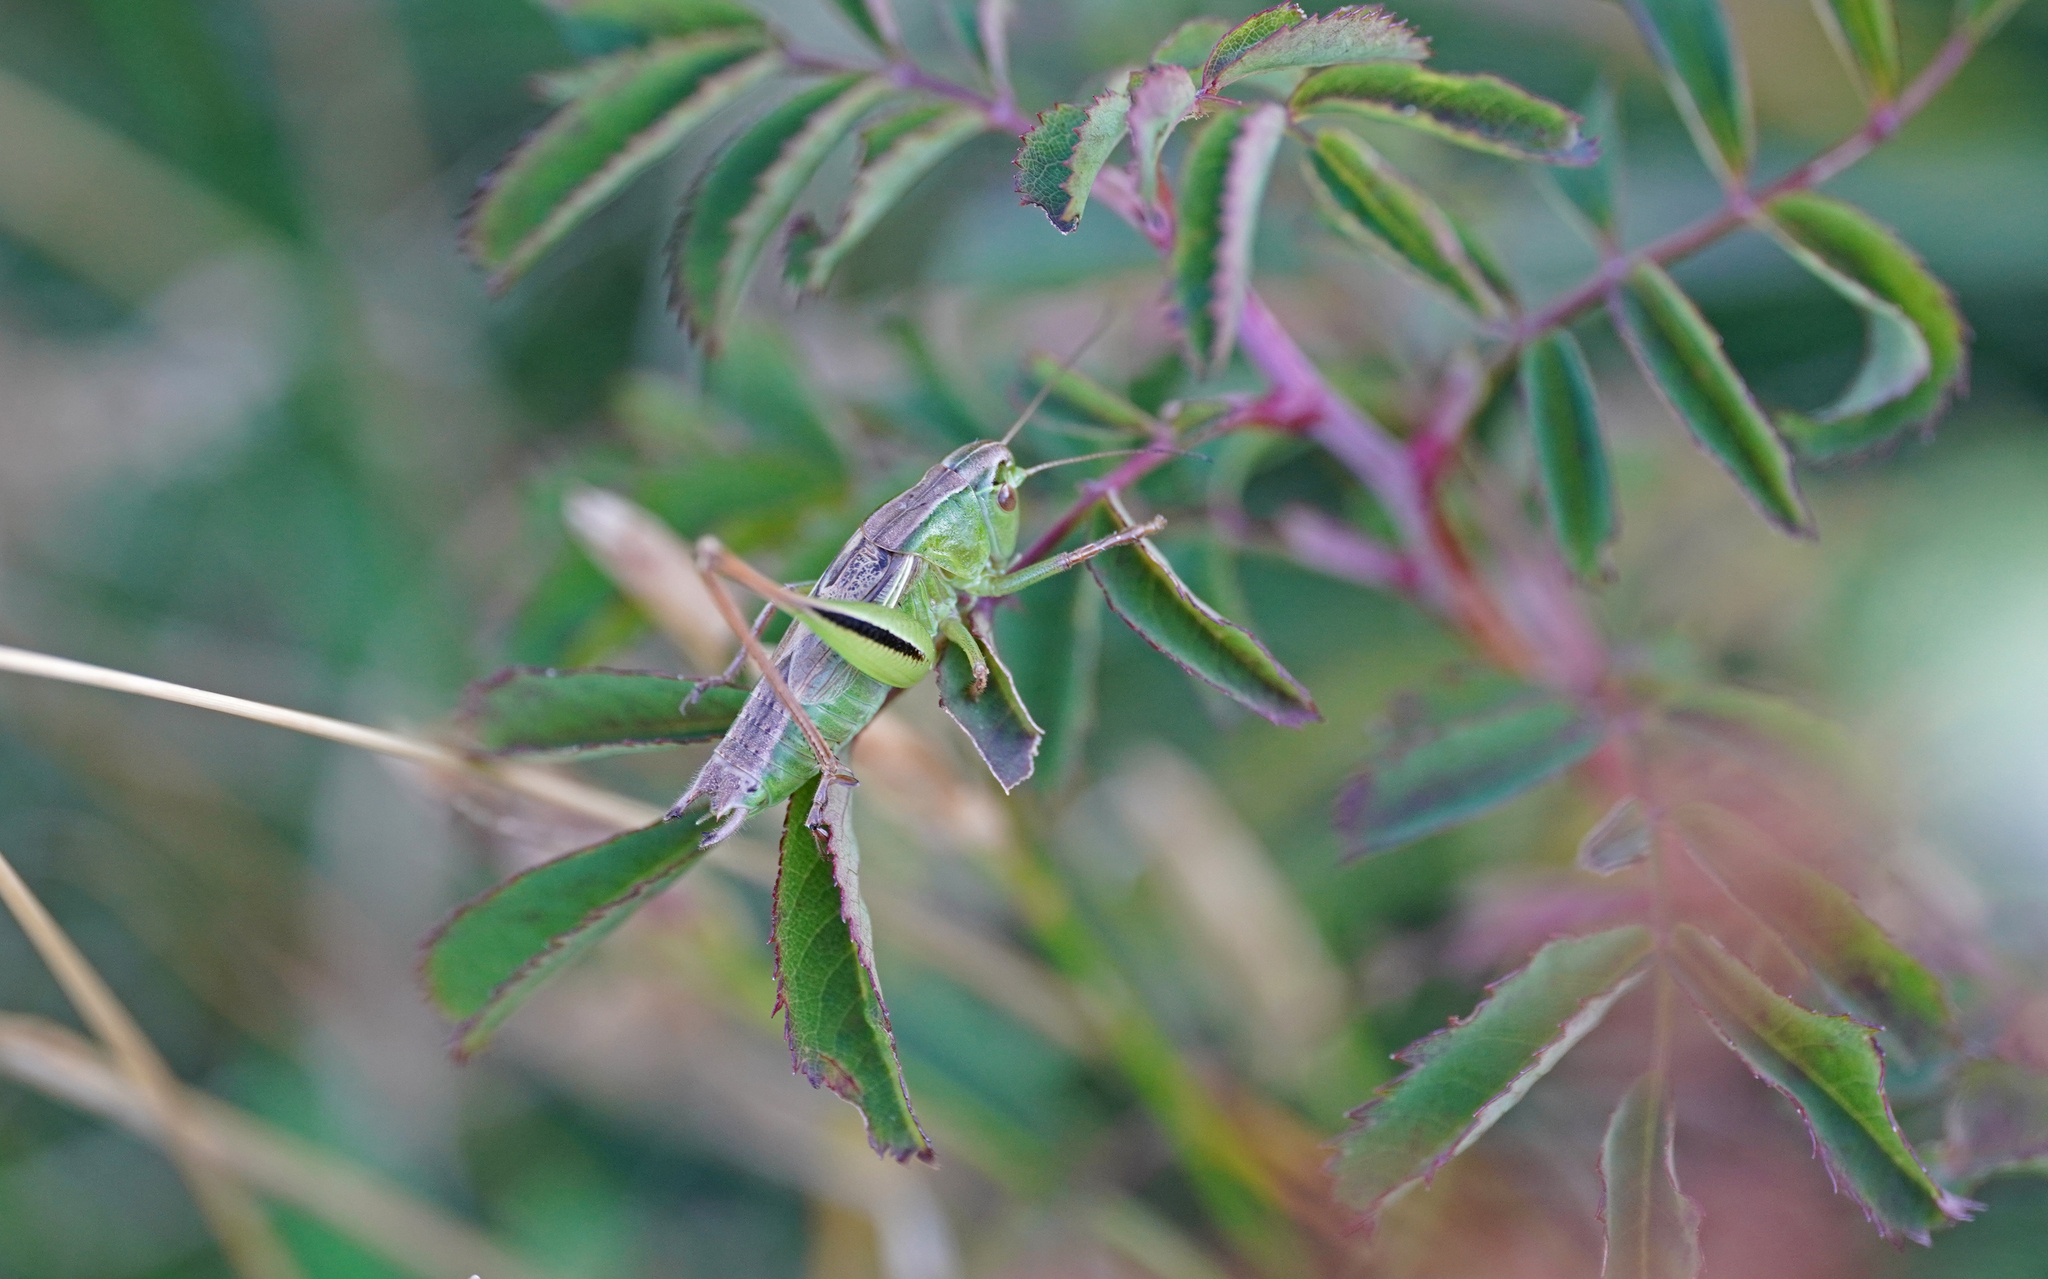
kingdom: Animalia
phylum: Arthropoda
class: Insecta
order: Orthoptera
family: Tettigoniidae
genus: Bicolorana
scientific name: Bicolorana kraussi
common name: Croatian meadow bush-cricket
